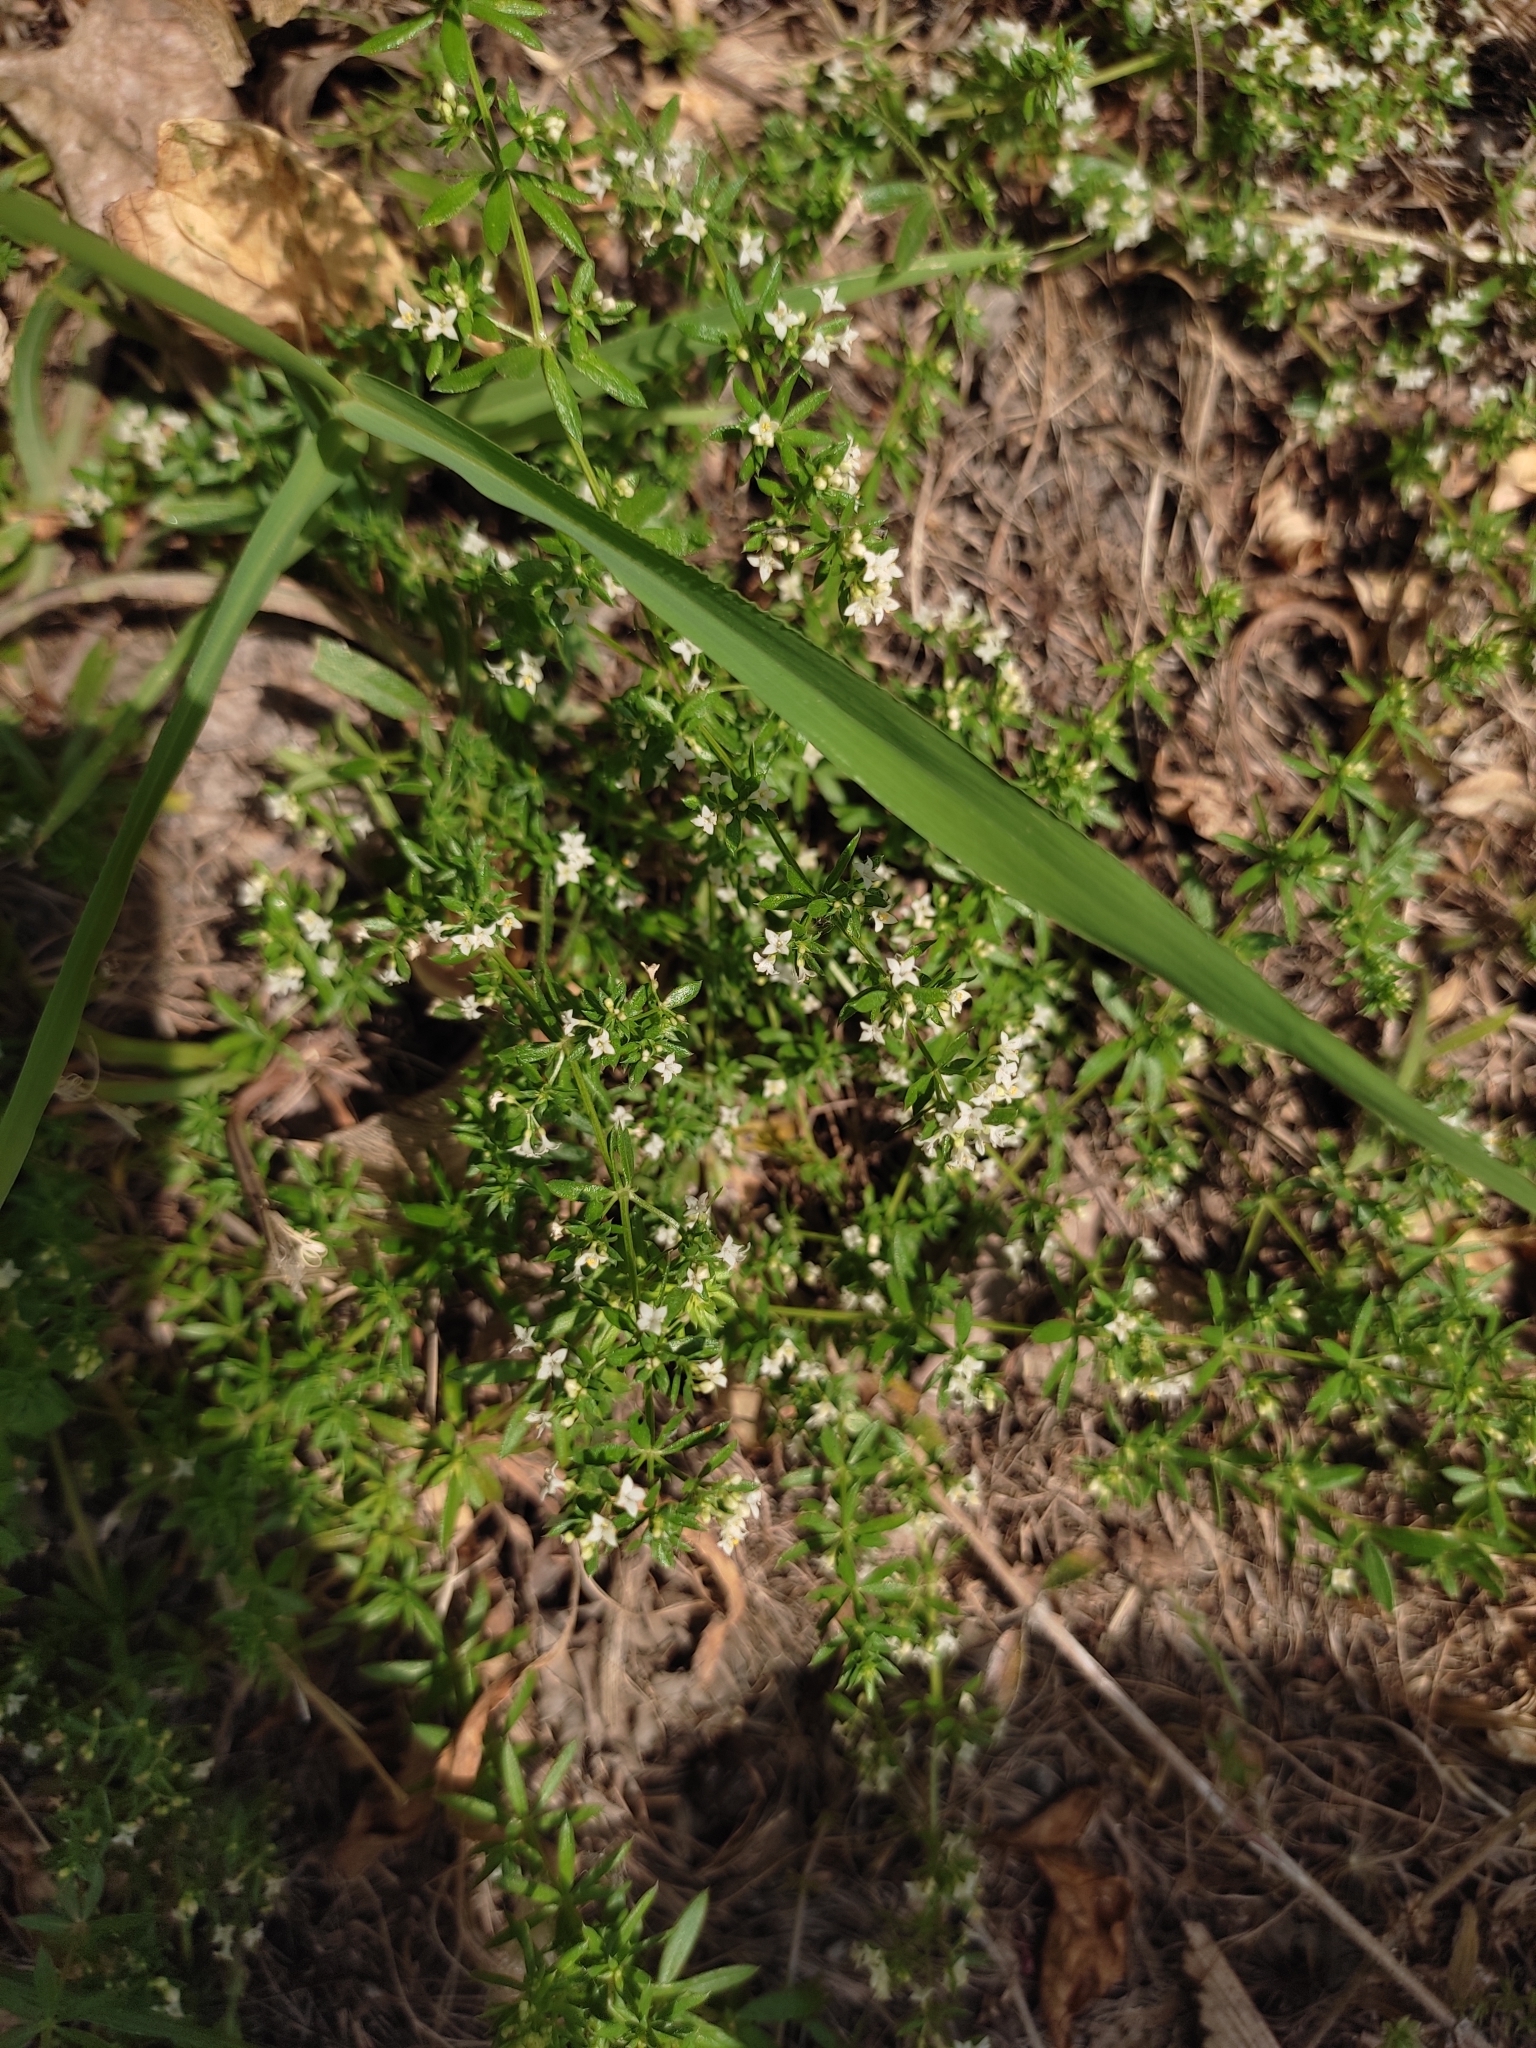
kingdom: Plantae
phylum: Tracheophyta
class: Magnoliopsida
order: Gentianales
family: Rubiaceae
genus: Galium
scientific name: Galium humifusum
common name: Spreading bedstraw
